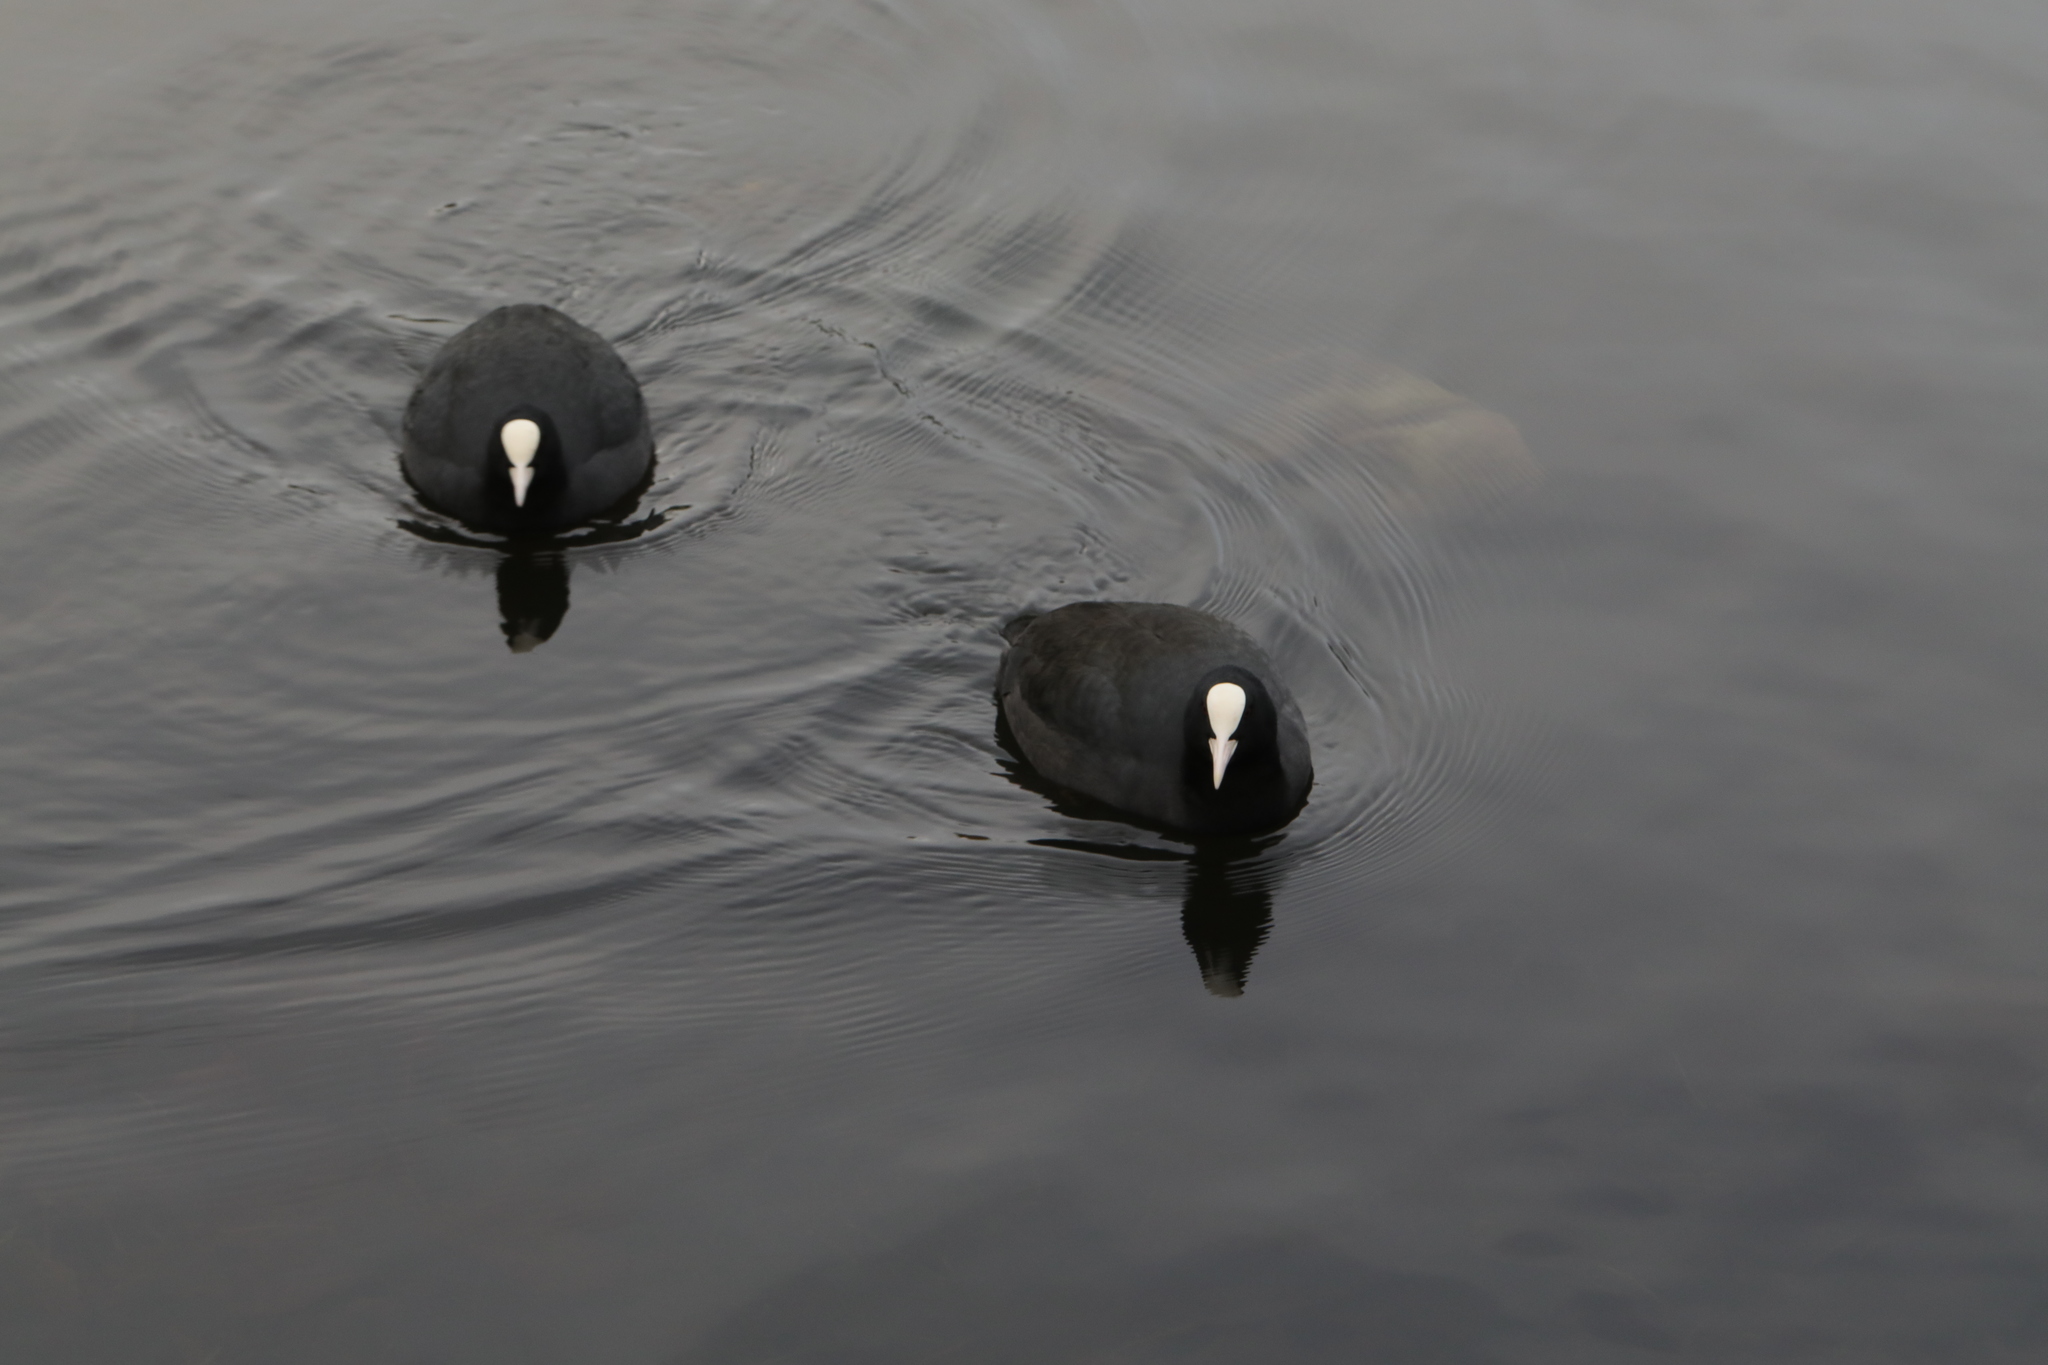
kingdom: Animalia
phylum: Chordata
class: Aves
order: Gruiformes
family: Rallidae
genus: Fulica
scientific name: Fulica atra
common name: Eurasian coot
